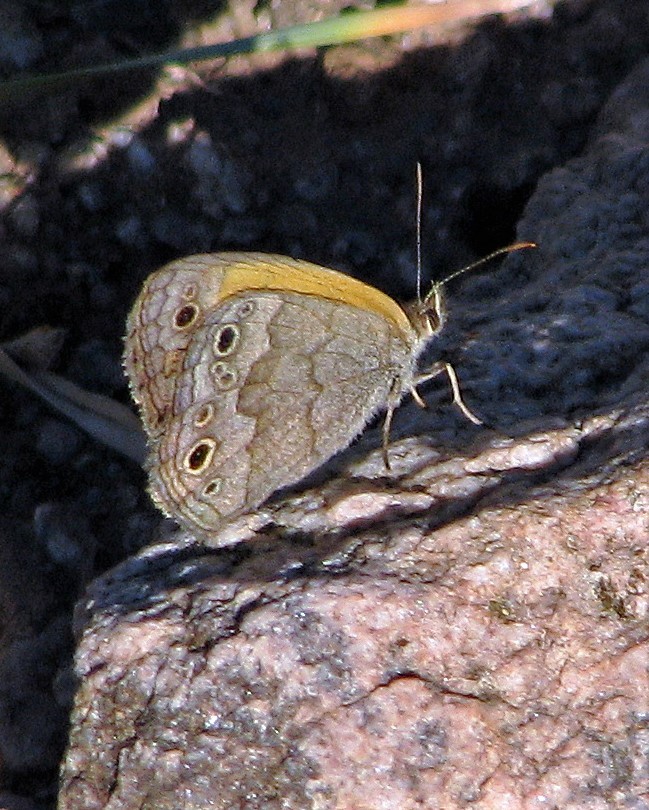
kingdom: Animalia
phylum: Arthropoda
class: Insecta
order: Lepidoptera
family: Nymphalidae
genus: Pharneuptychia
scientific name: Pharneuptychia phares
